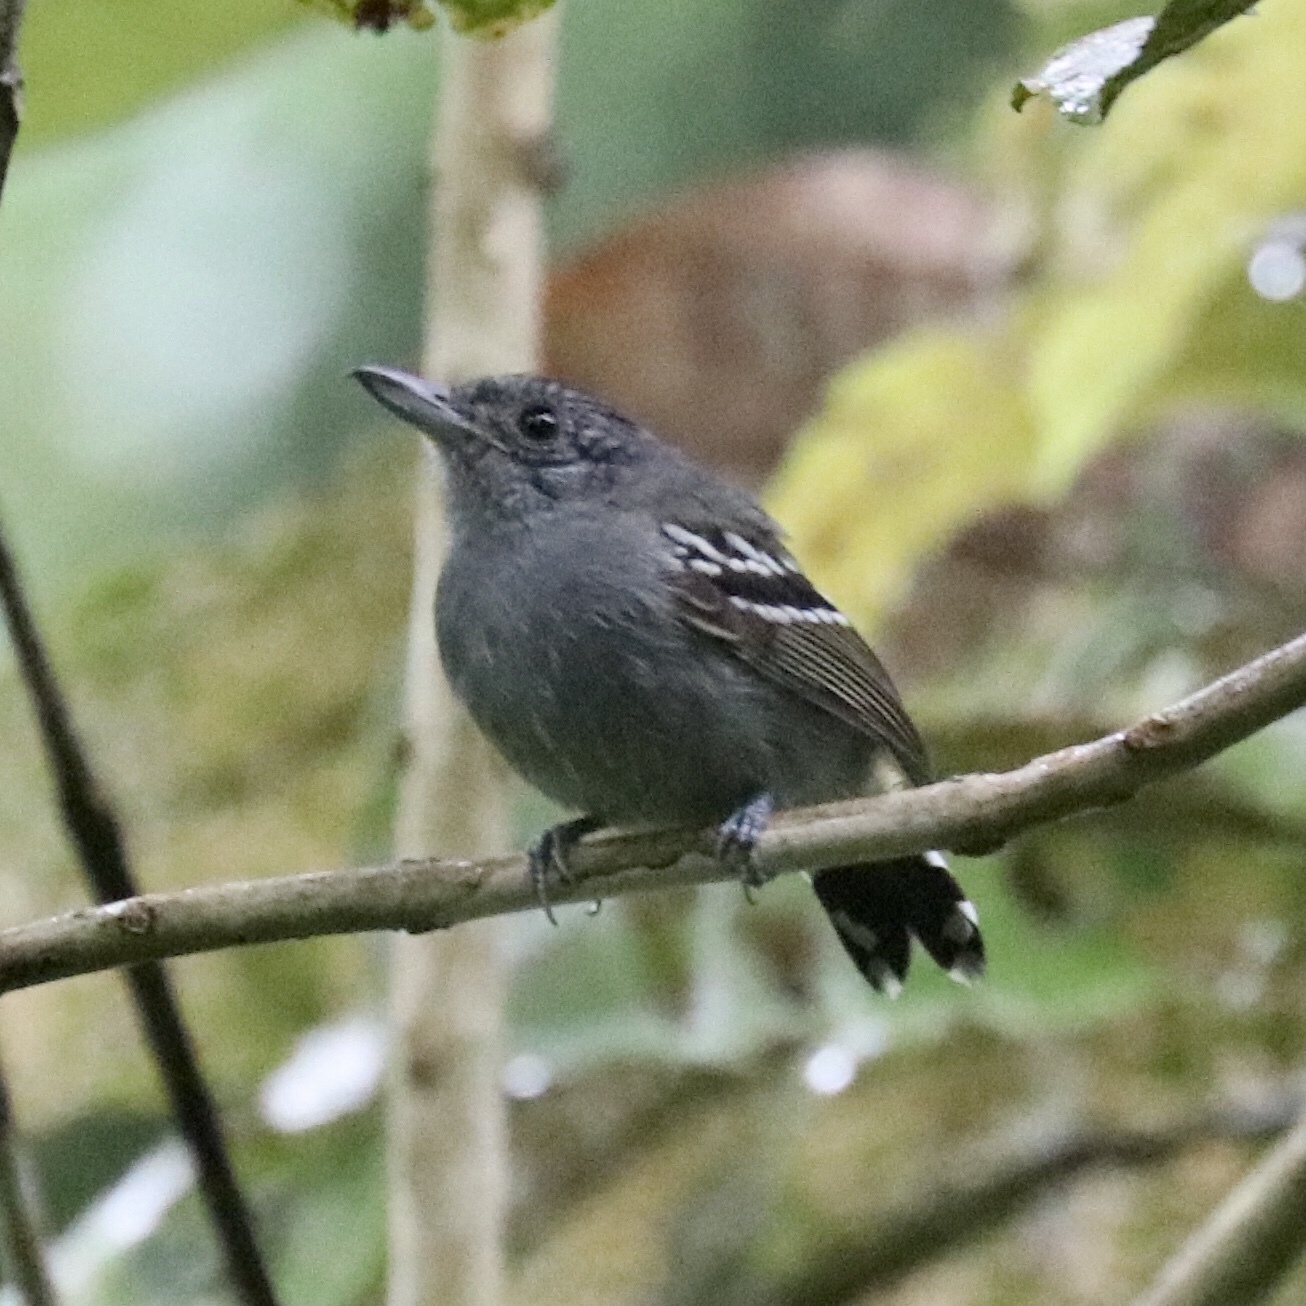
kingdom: Animalia
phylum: Chordata
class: Aves
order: Passeriformes
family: Thamnophilidae
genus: Thamnophilus
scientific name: Thamnophilus atrinucha
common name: Black-crowned antshrike
